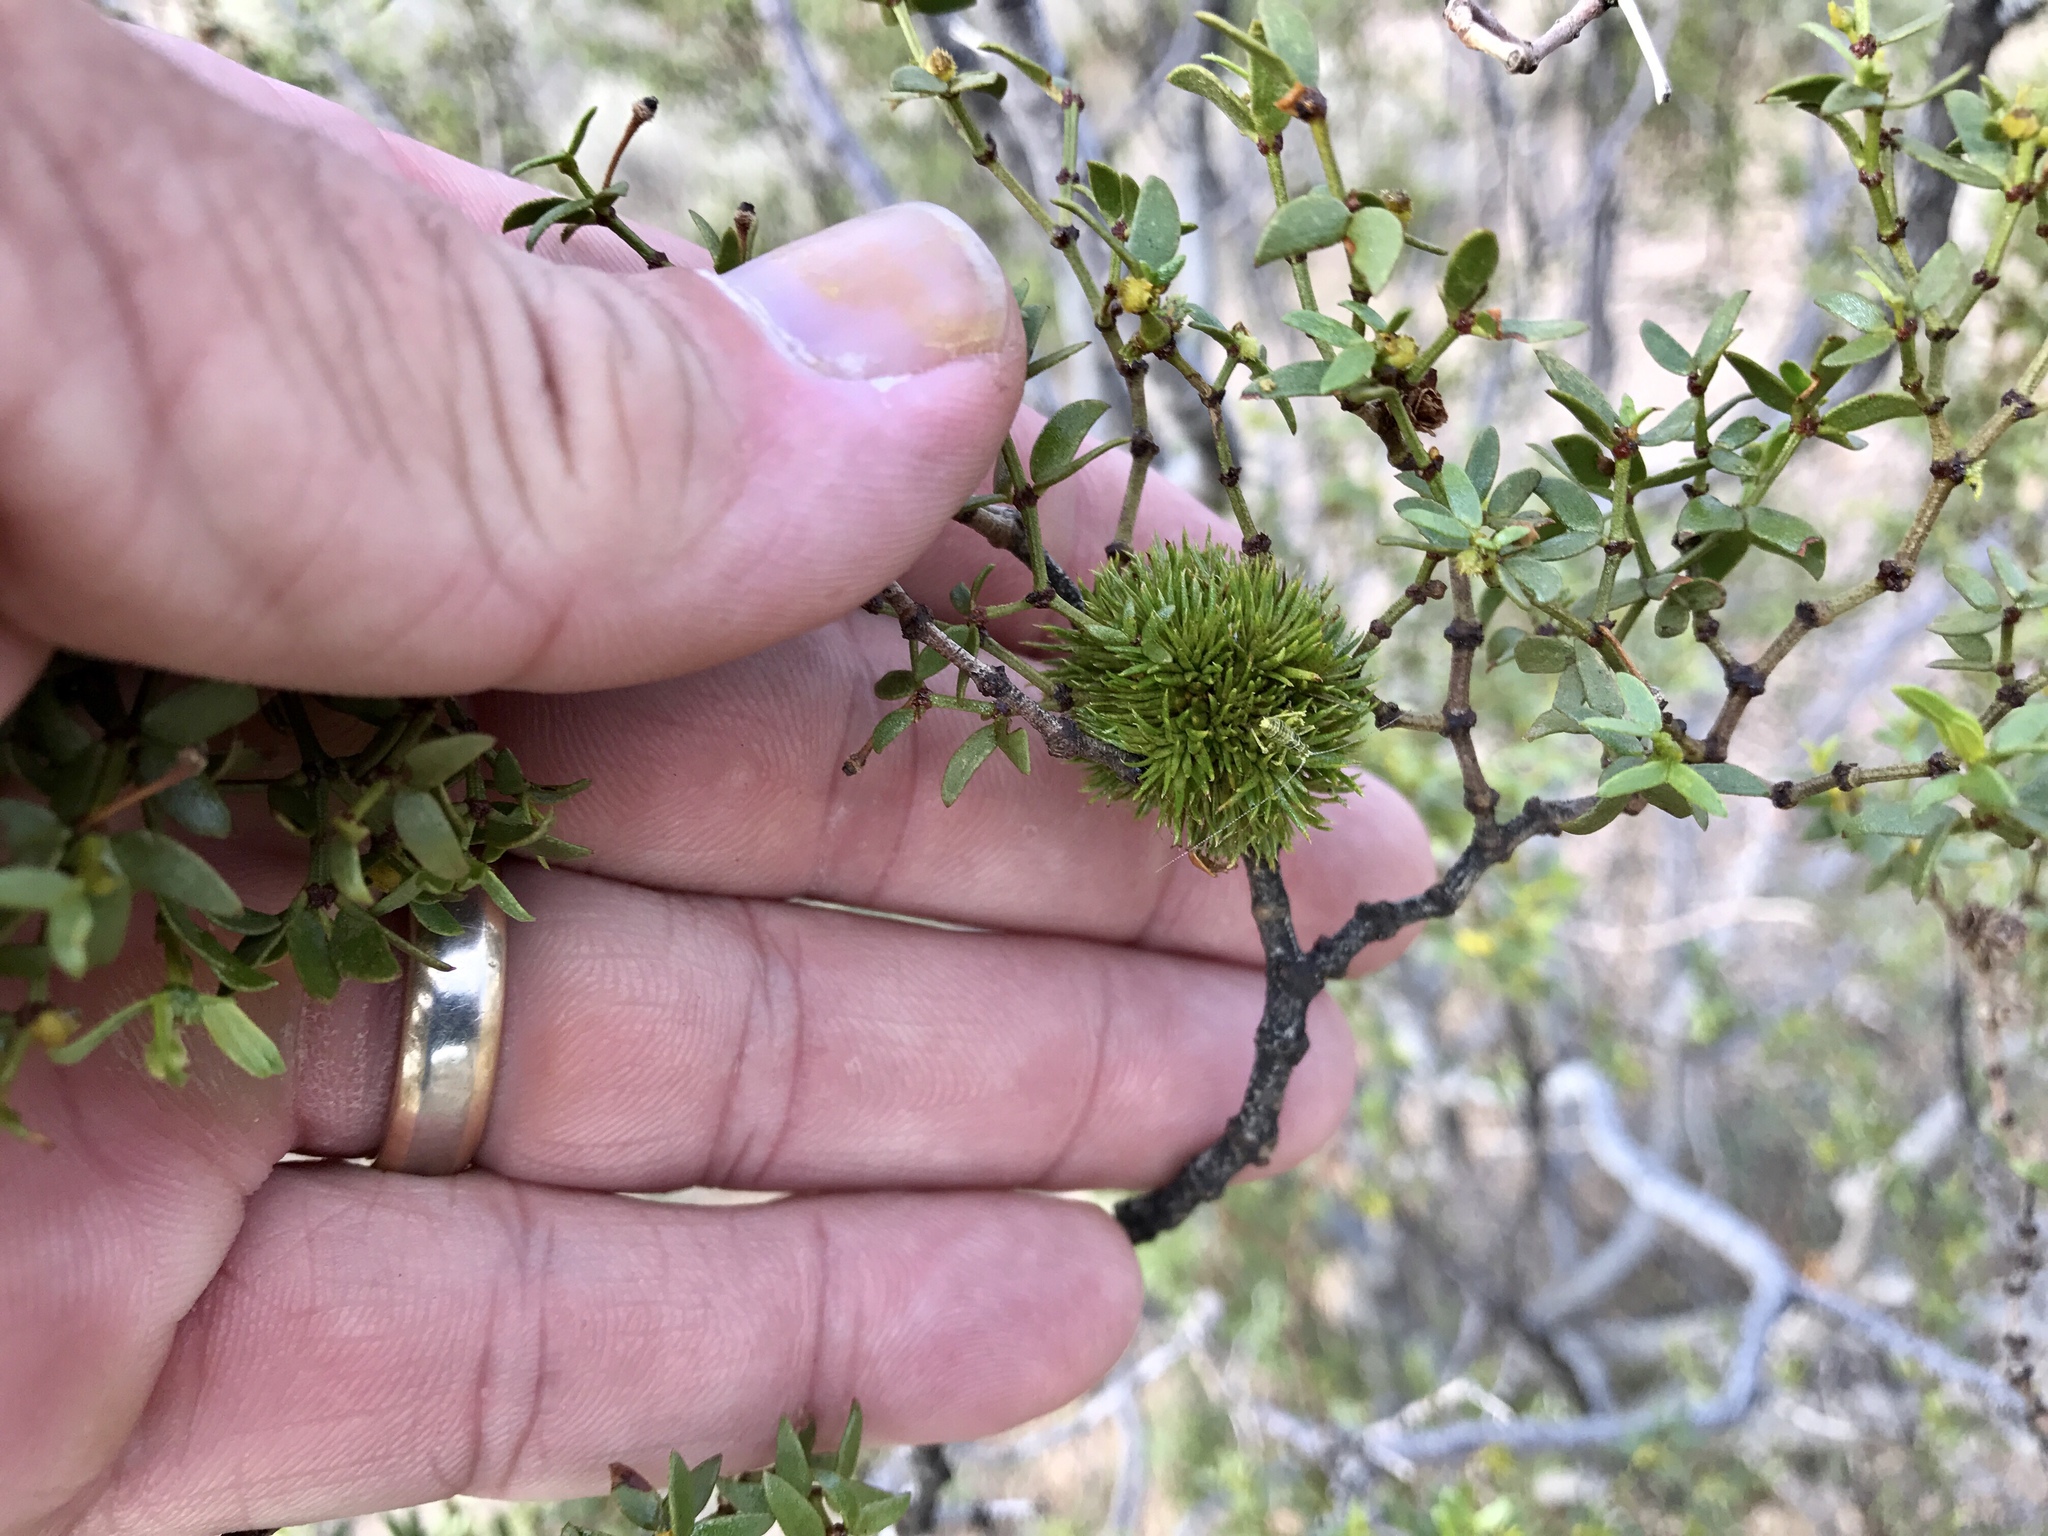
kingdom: Animalia
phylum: Arthropoda
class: Insecta
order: Diptera
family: Cecidomyiidae
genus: Asphondylia
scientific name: Asphondylia auripila
